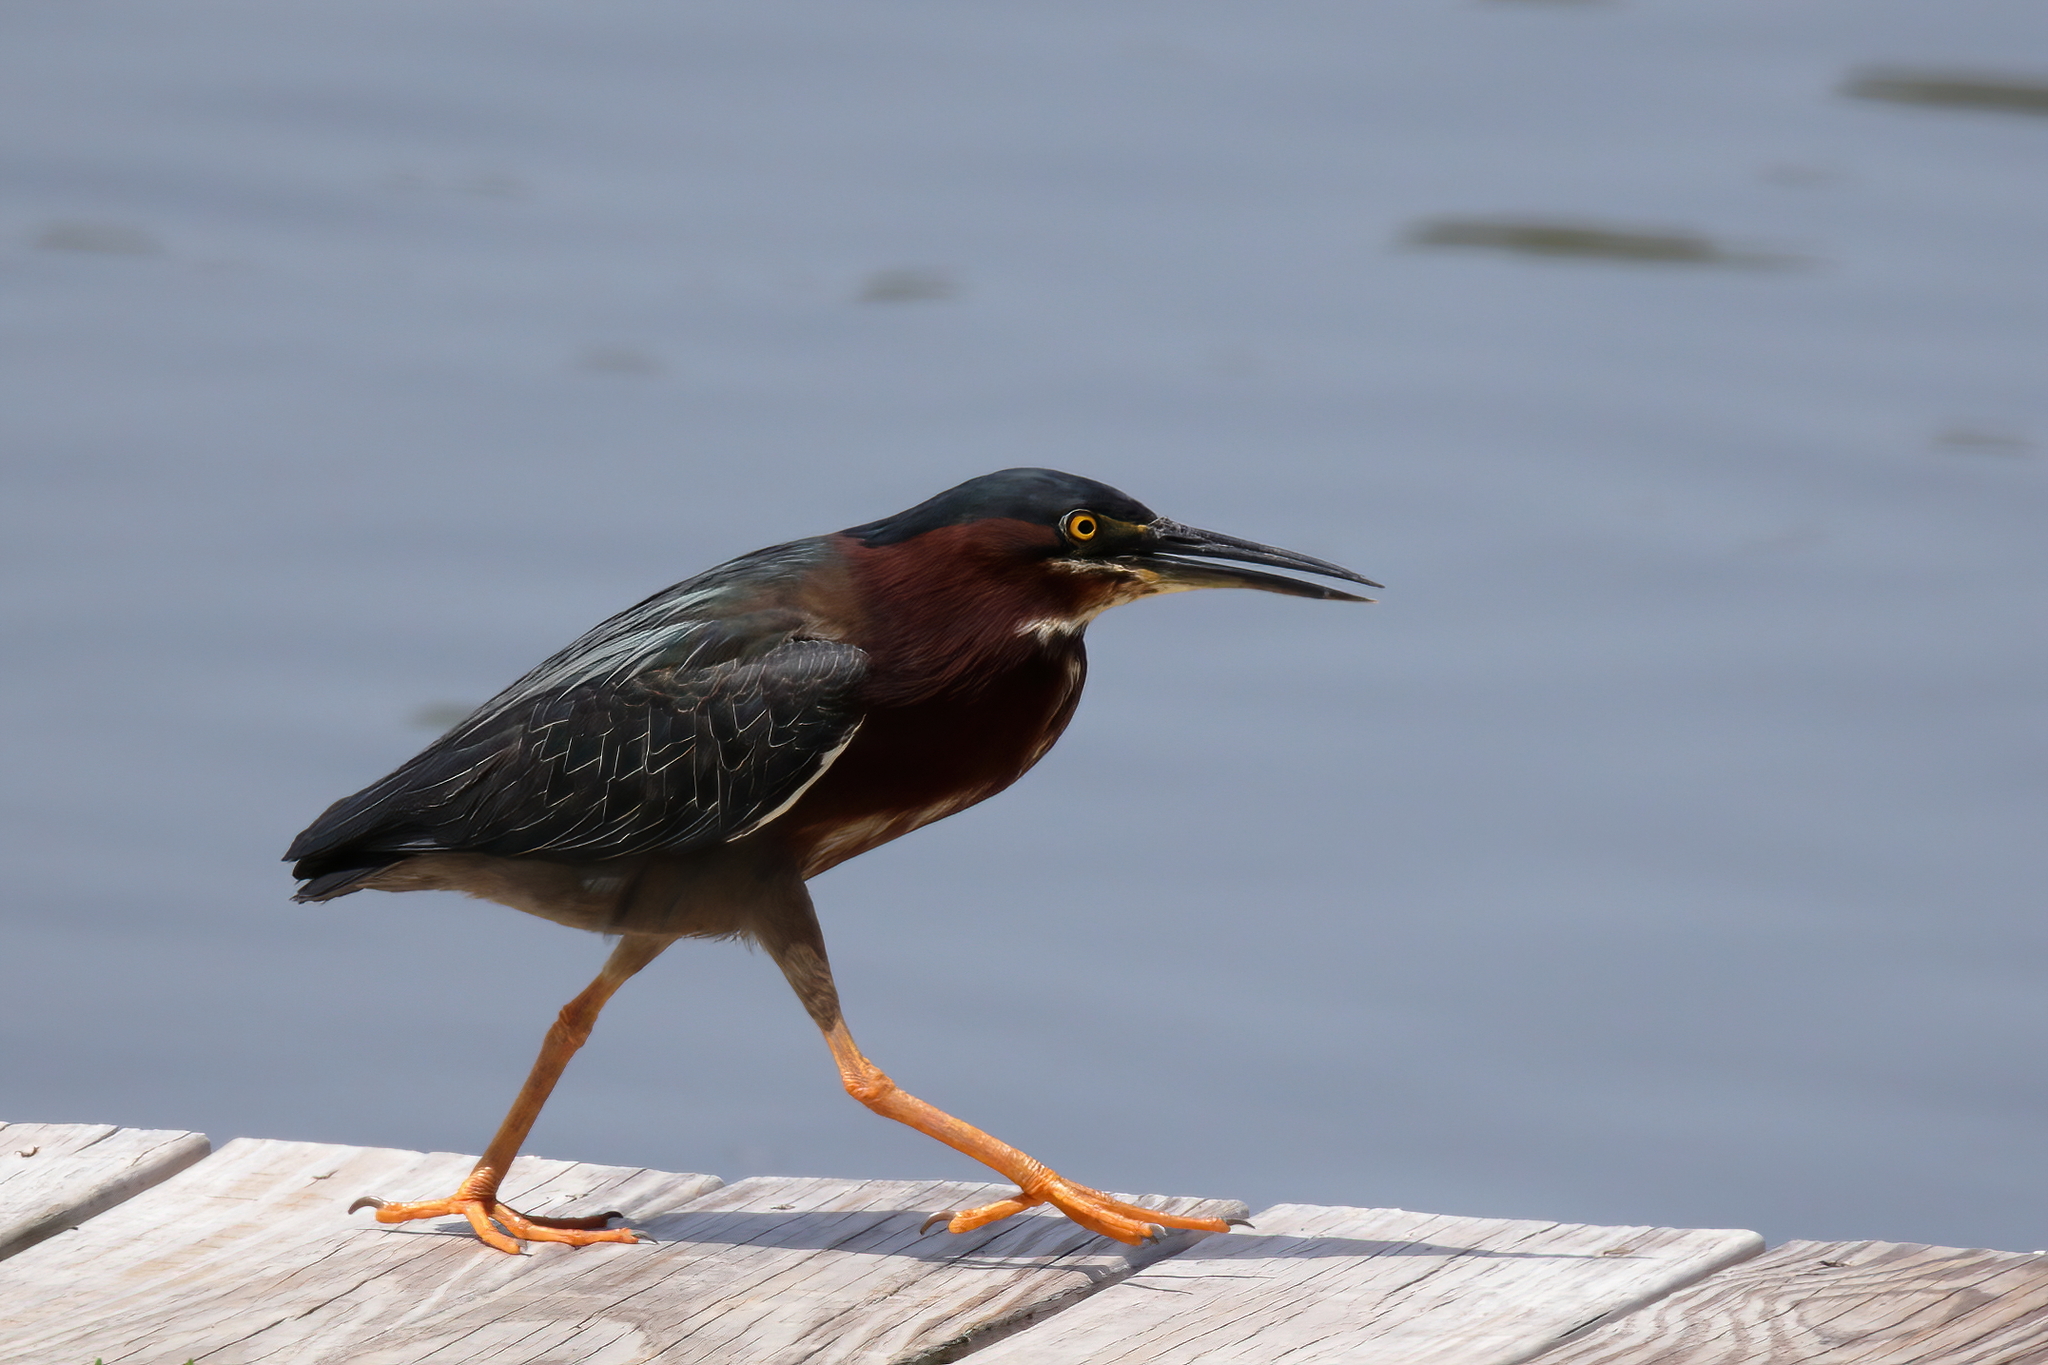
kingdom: Animalia
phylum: Chordata
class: Aves
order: Pelecaniformes
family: Ardeidae
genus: Butorides
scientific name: Butorides virescens
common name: Green heron
